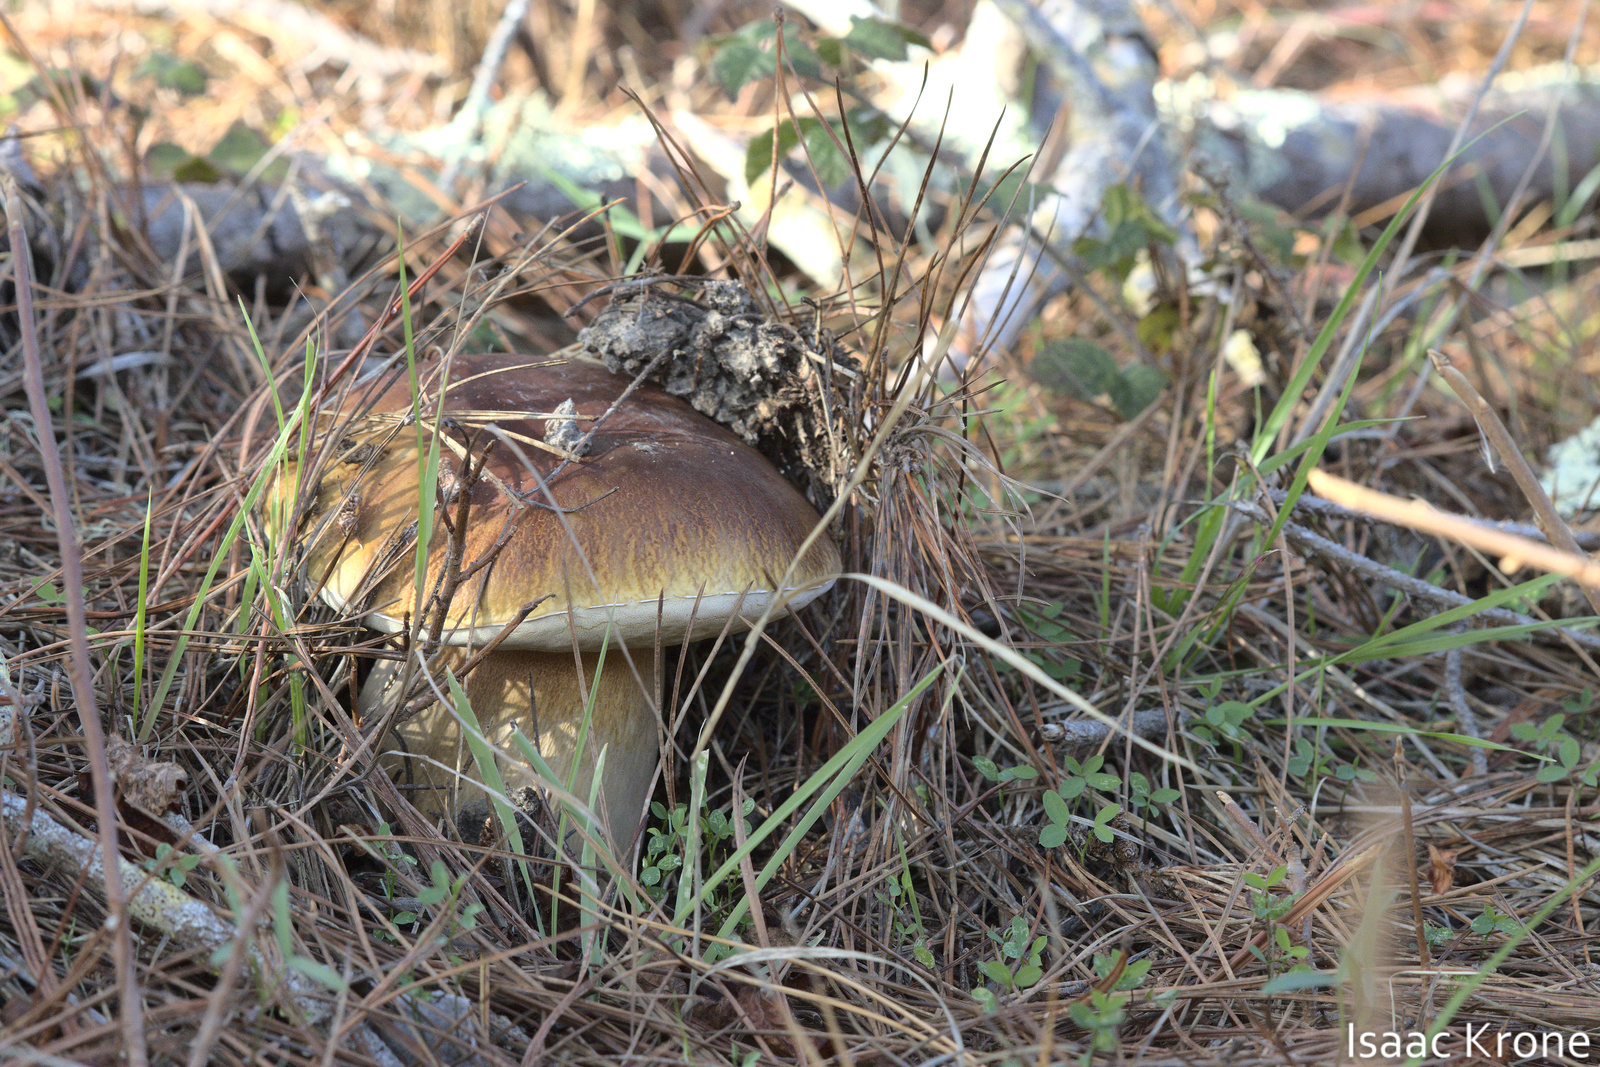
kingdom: Fungi
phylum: Basidiomycota
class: Agaricomycetes
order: Boletales
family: Boletaceae
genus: Boletus
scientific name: Boletus edulis
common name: Cep
